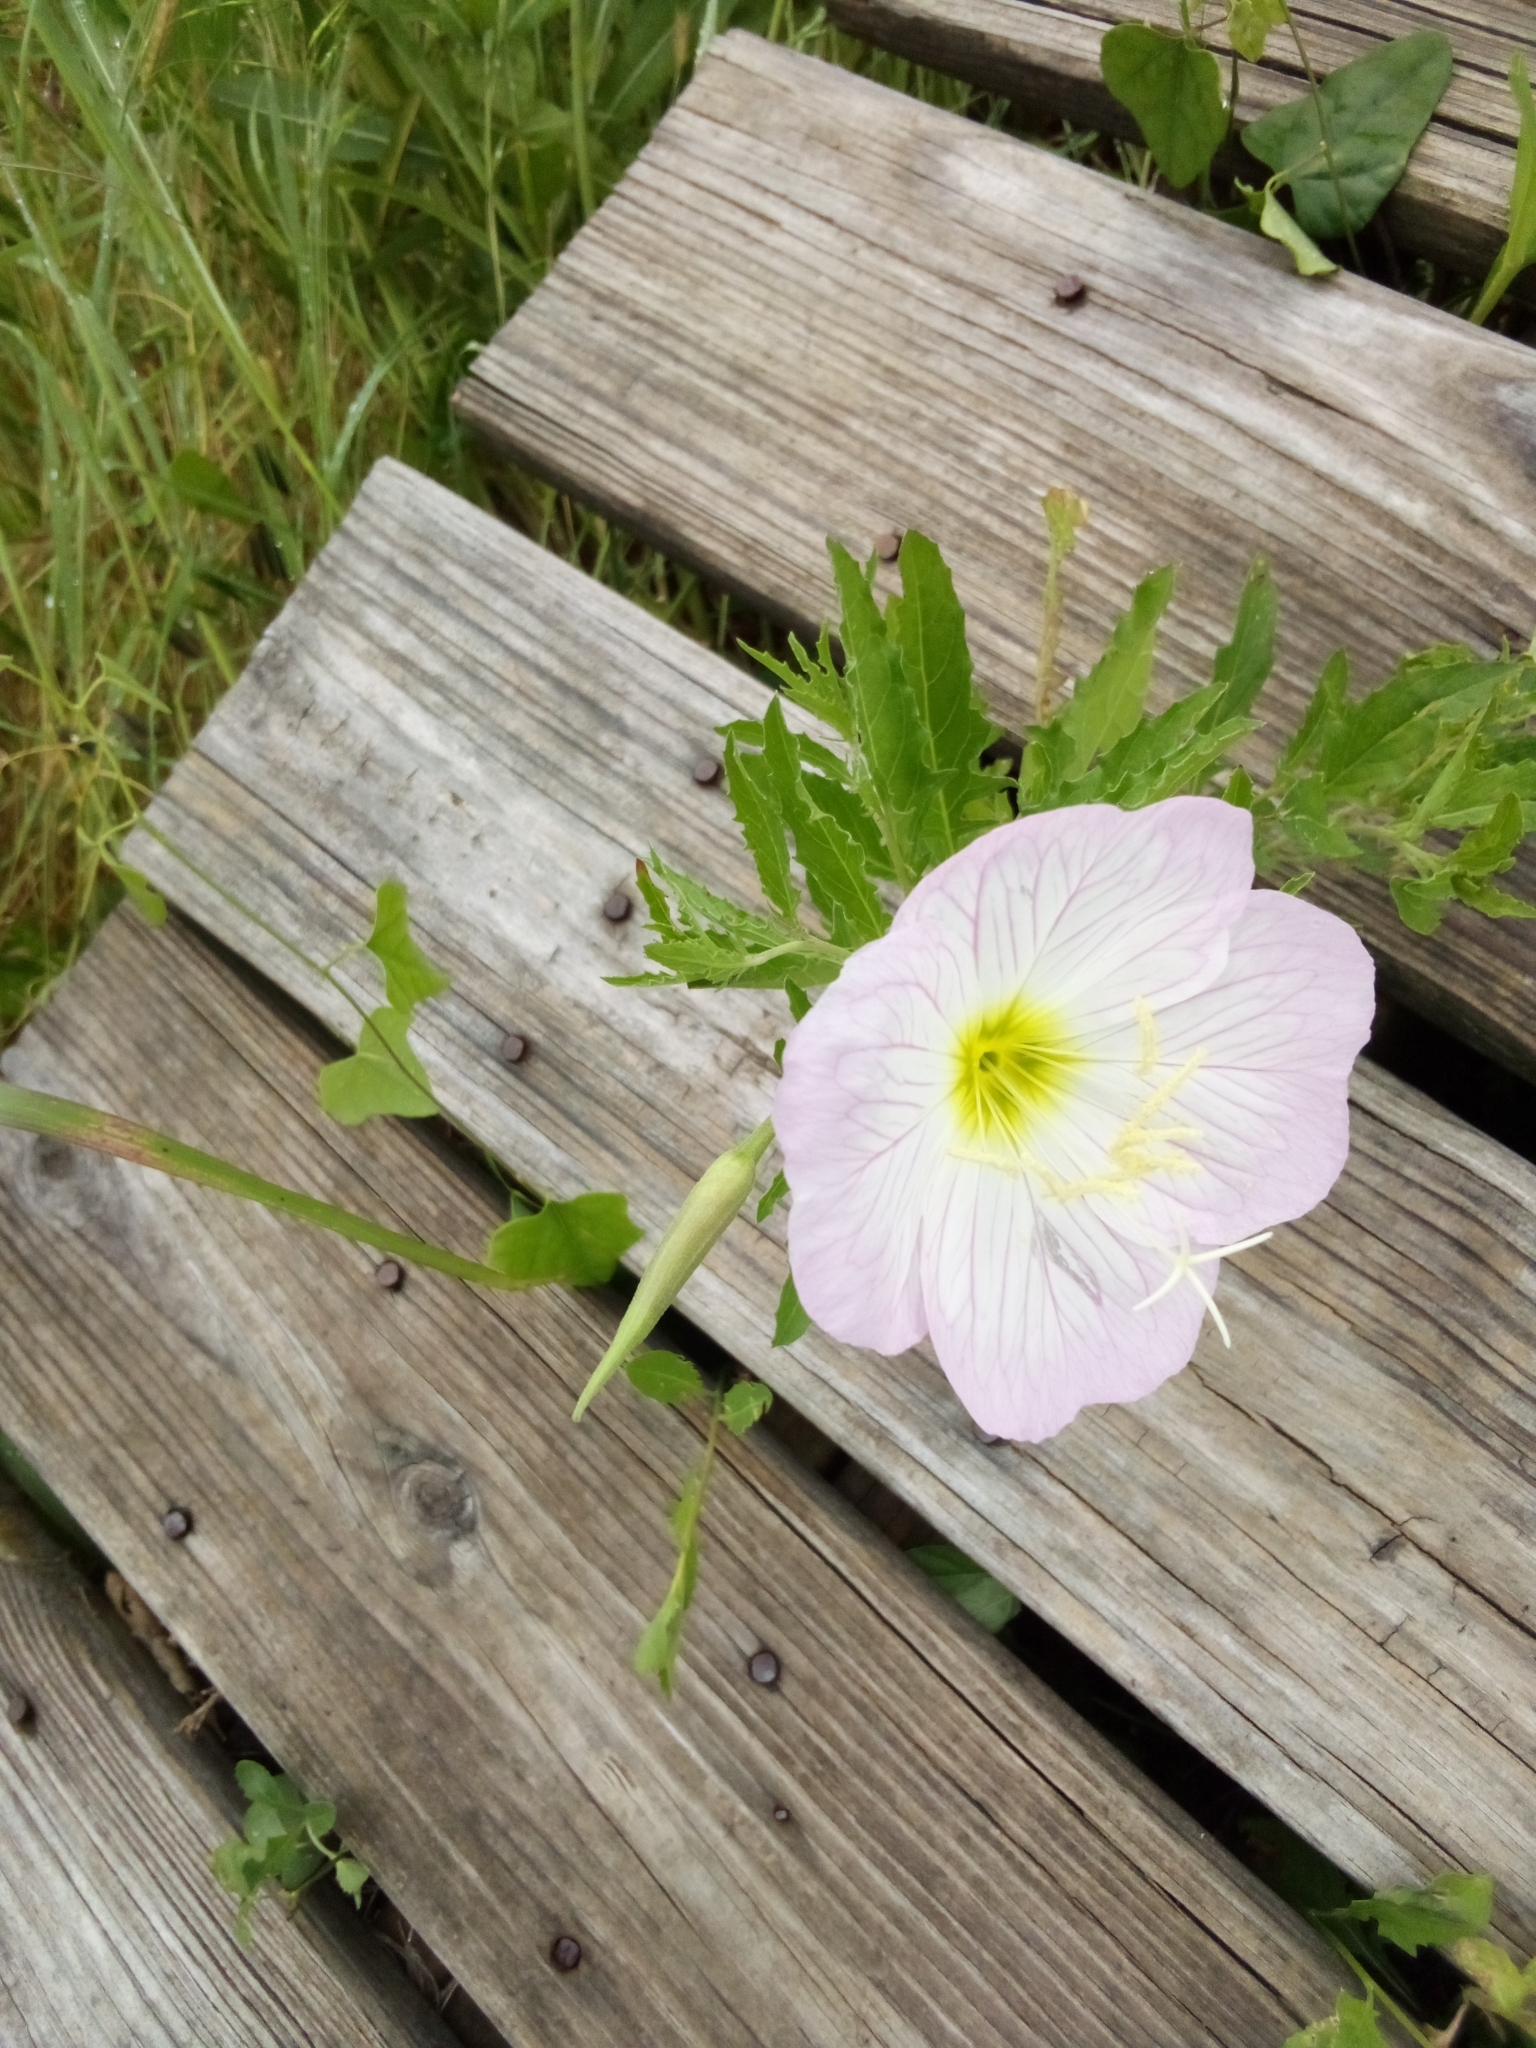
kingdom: Plantae
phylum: Tracheophyta
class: Magnoliopsida
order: Myrtales
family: Onagraceae
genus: Oenothera
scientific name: Oenothera speciosa
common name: White evening-primrose
